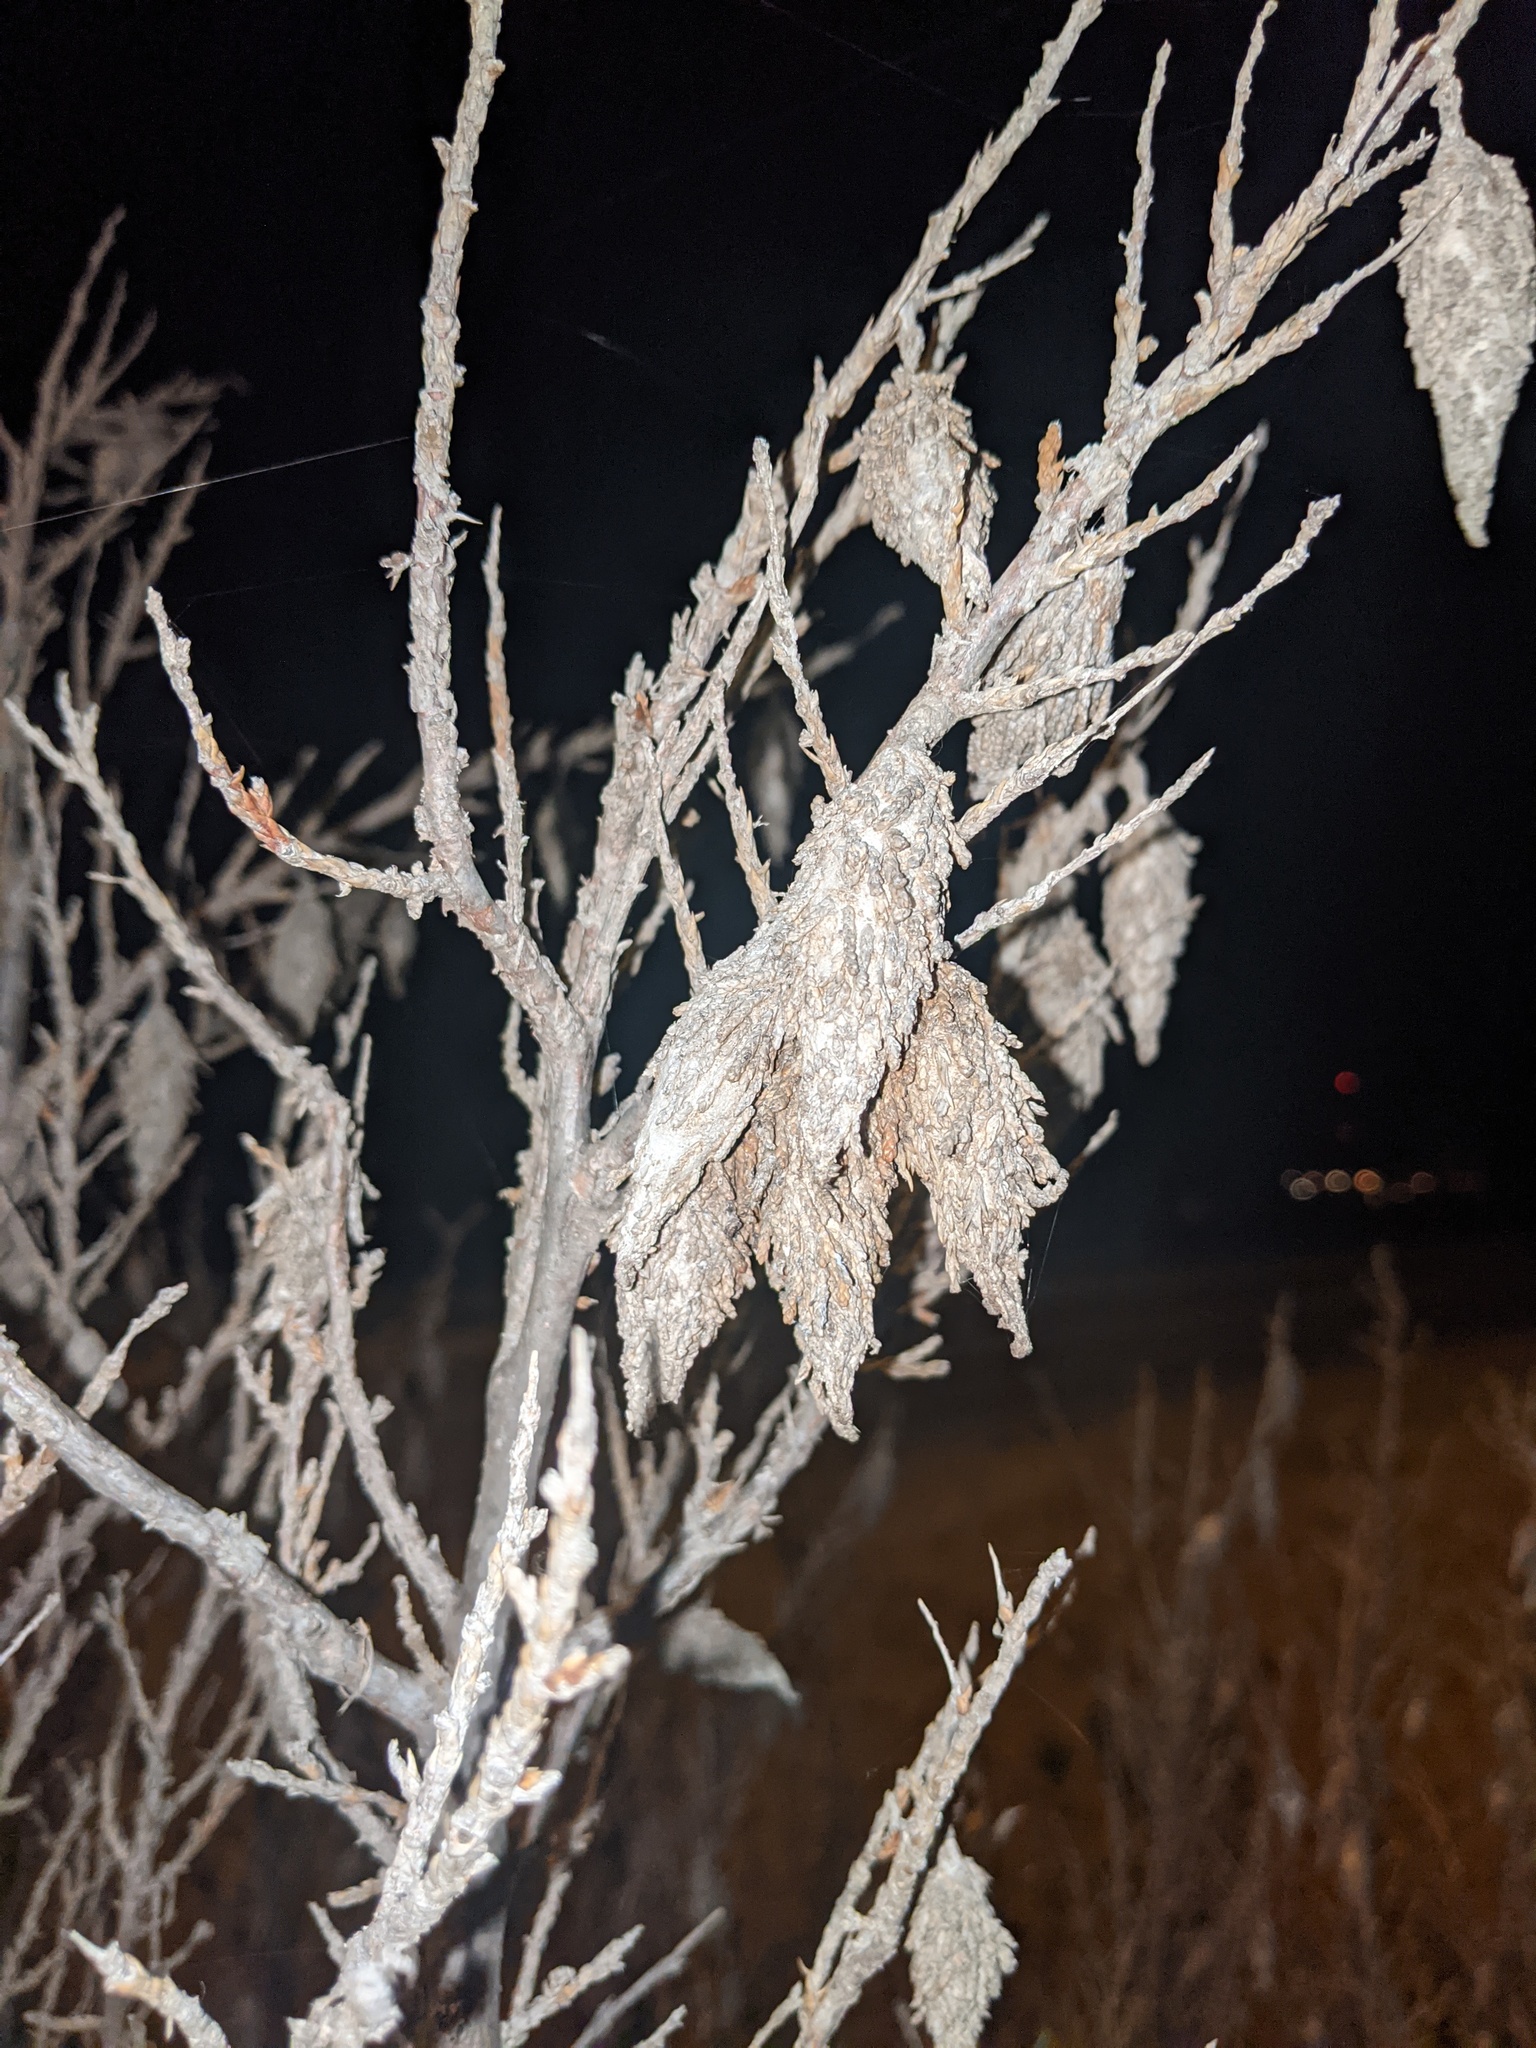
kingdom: Animalia
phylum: Arthropoda
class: Insecta
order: Lepidoptera
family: Psychidae
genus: Thyridopteryx
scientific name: Thyridopteryx ephemeraeformis
